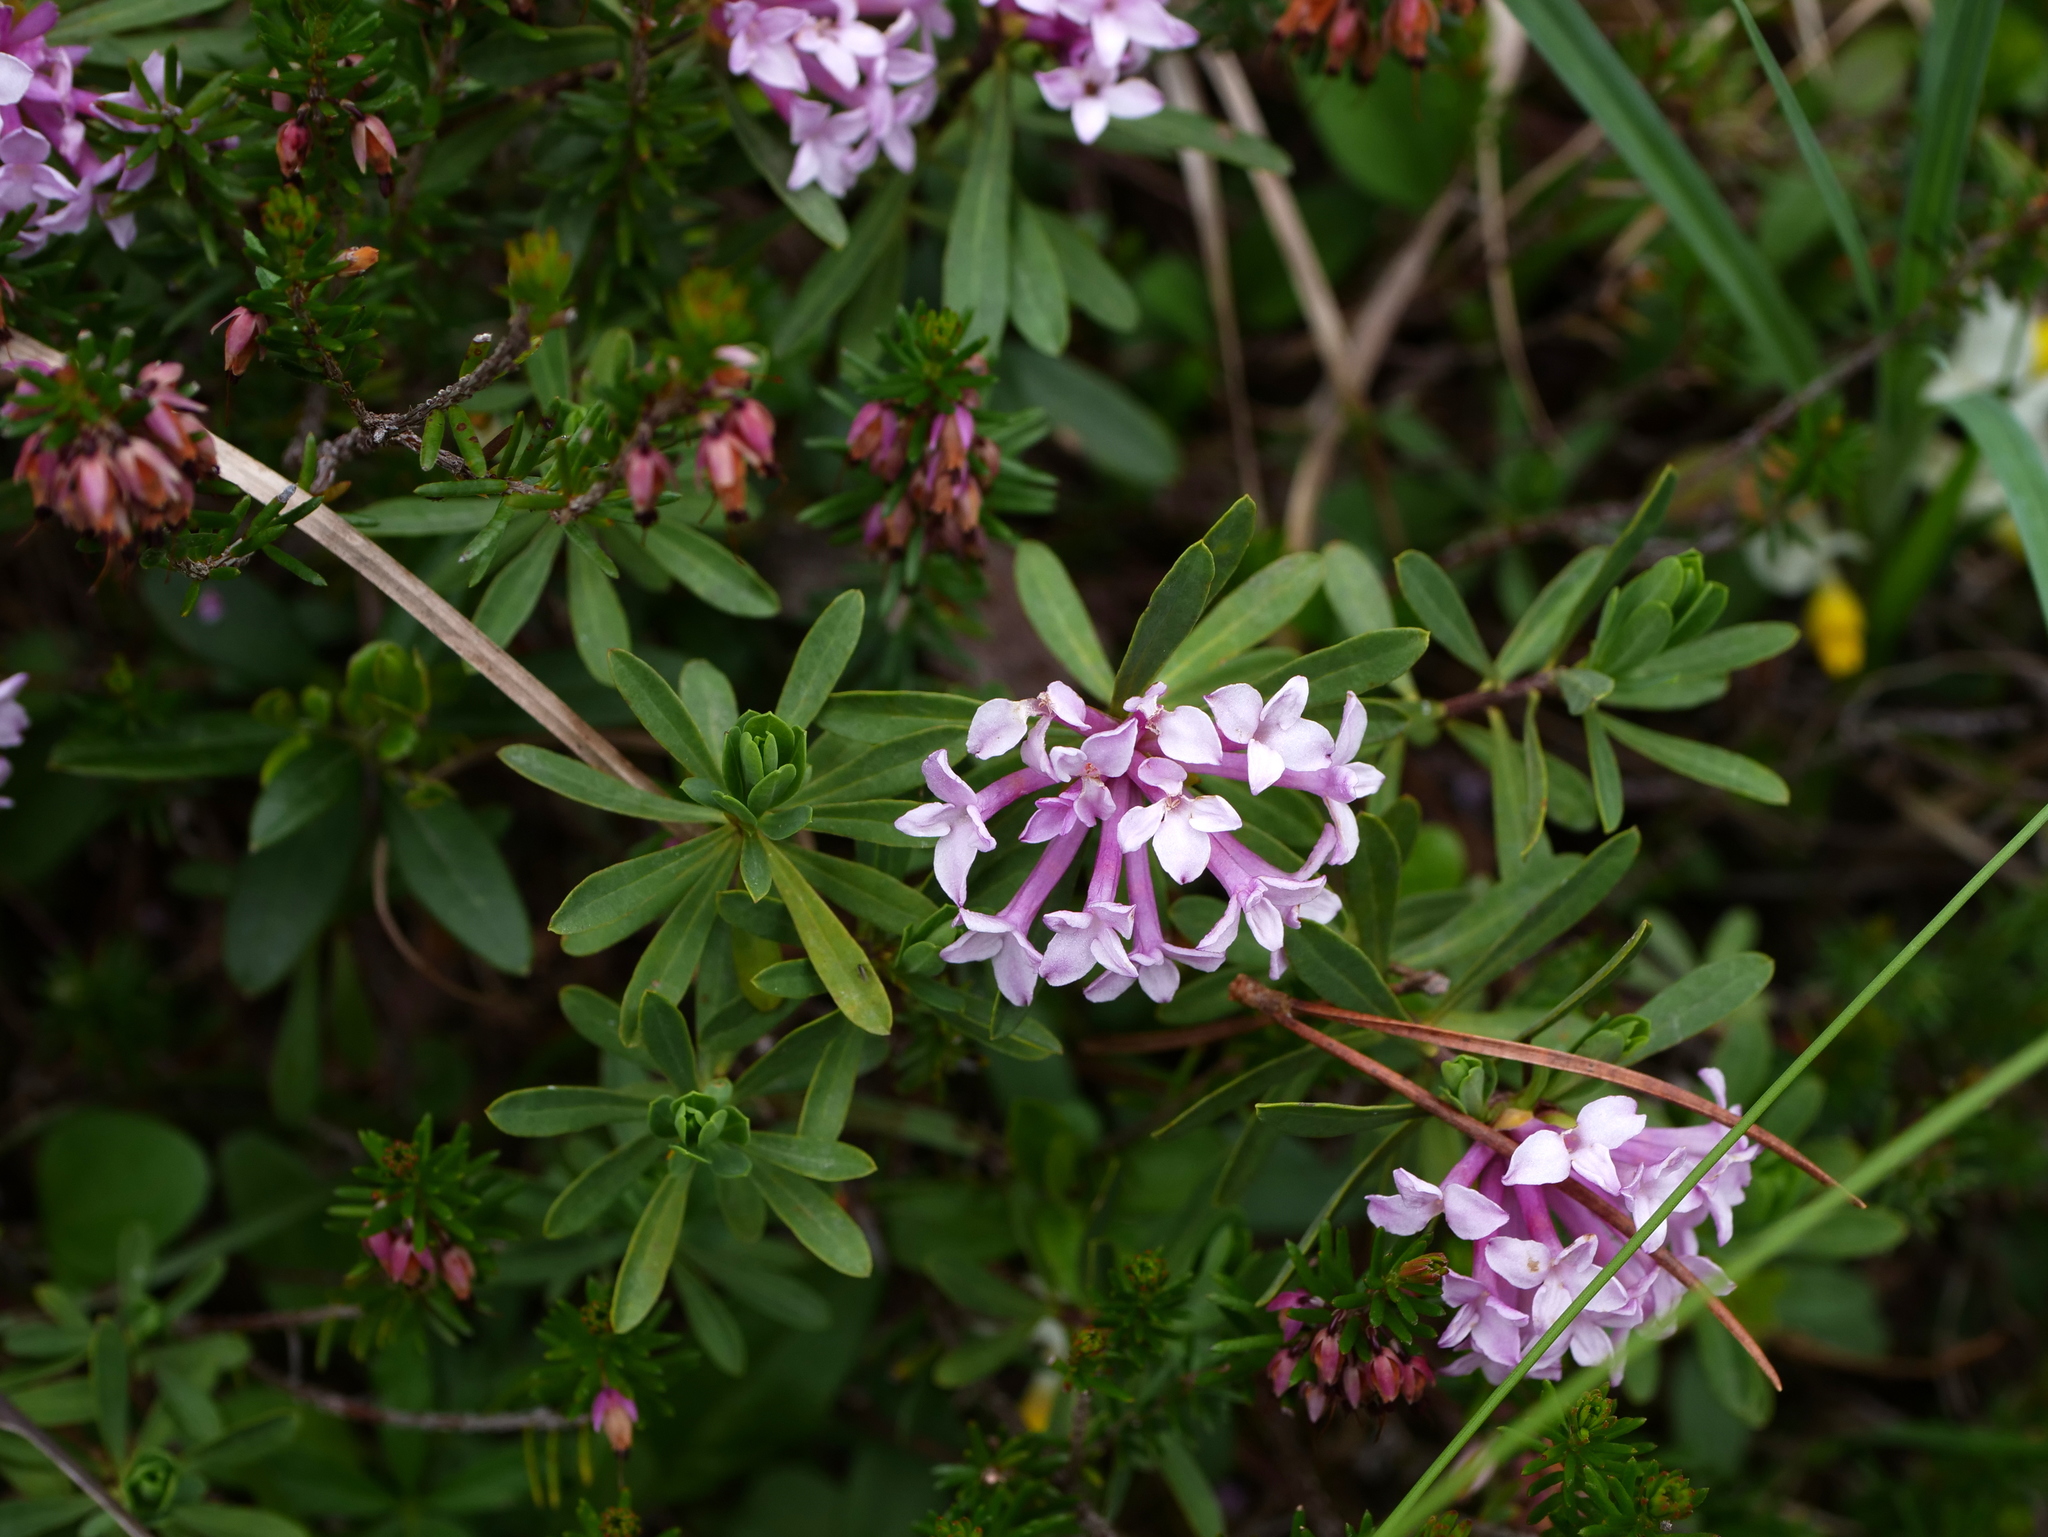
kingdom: Plantae
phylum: Tracheophyta
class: Magnoliopsida
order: Malvales
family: Thymelaeaceae
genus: Daphne
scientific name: Daphne striata
